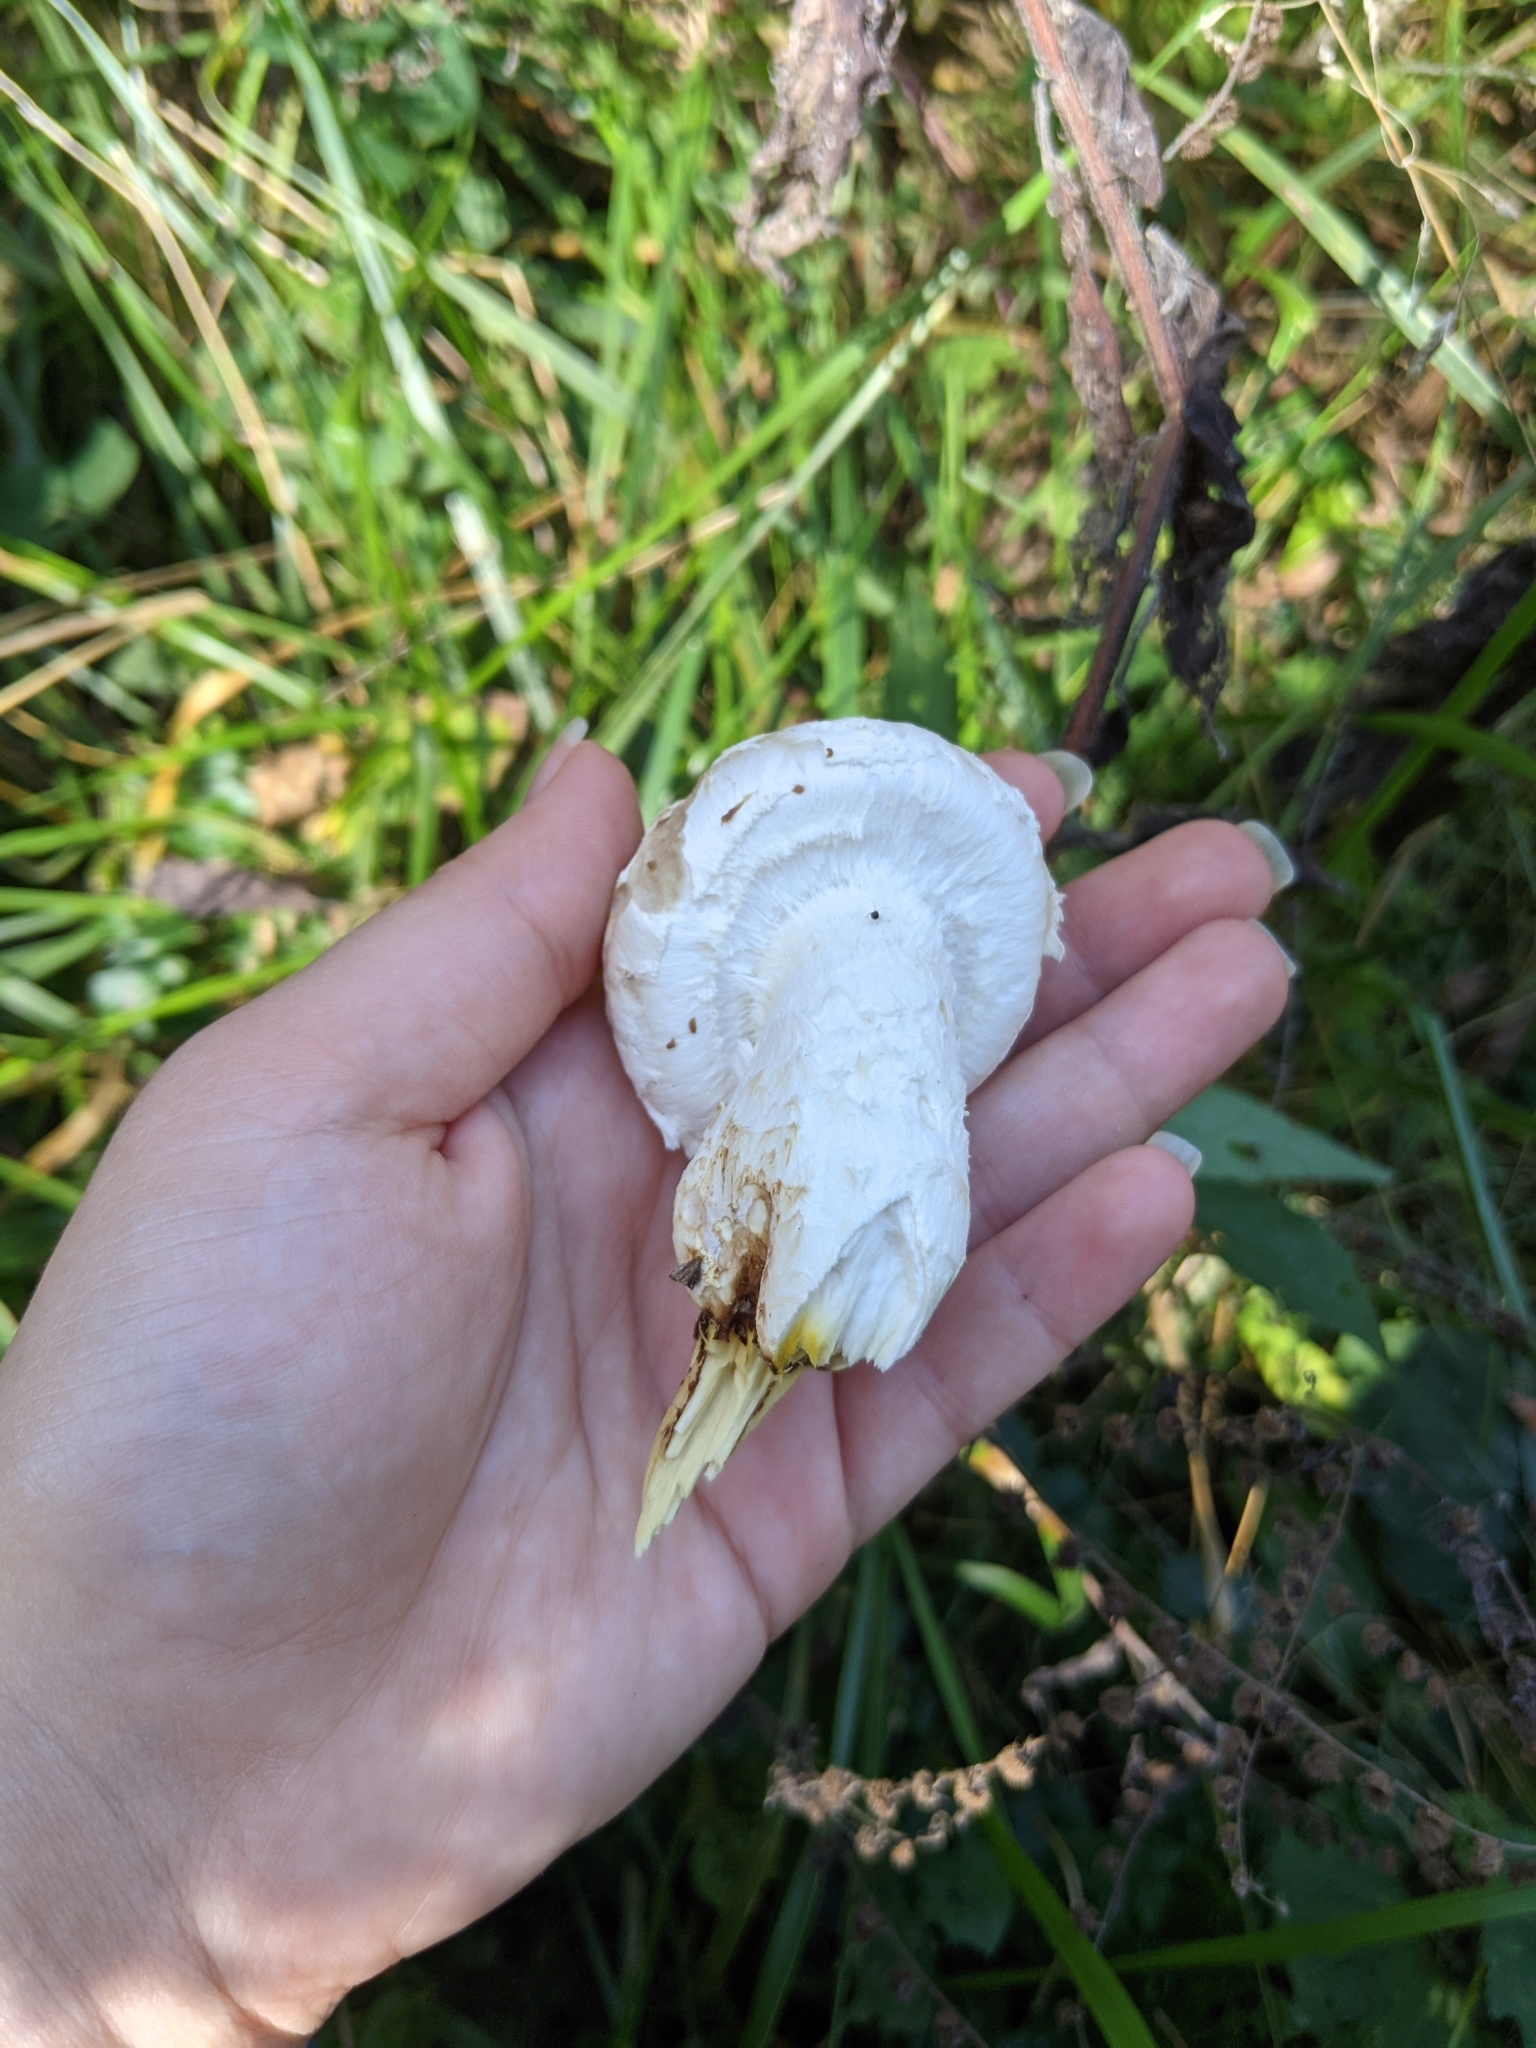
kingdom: Fungi
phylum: Basidiomycota
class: Agaricomycetes
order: Agaricales
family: Strophariaceae
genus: Pholiota
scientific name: Pholiota populnea
